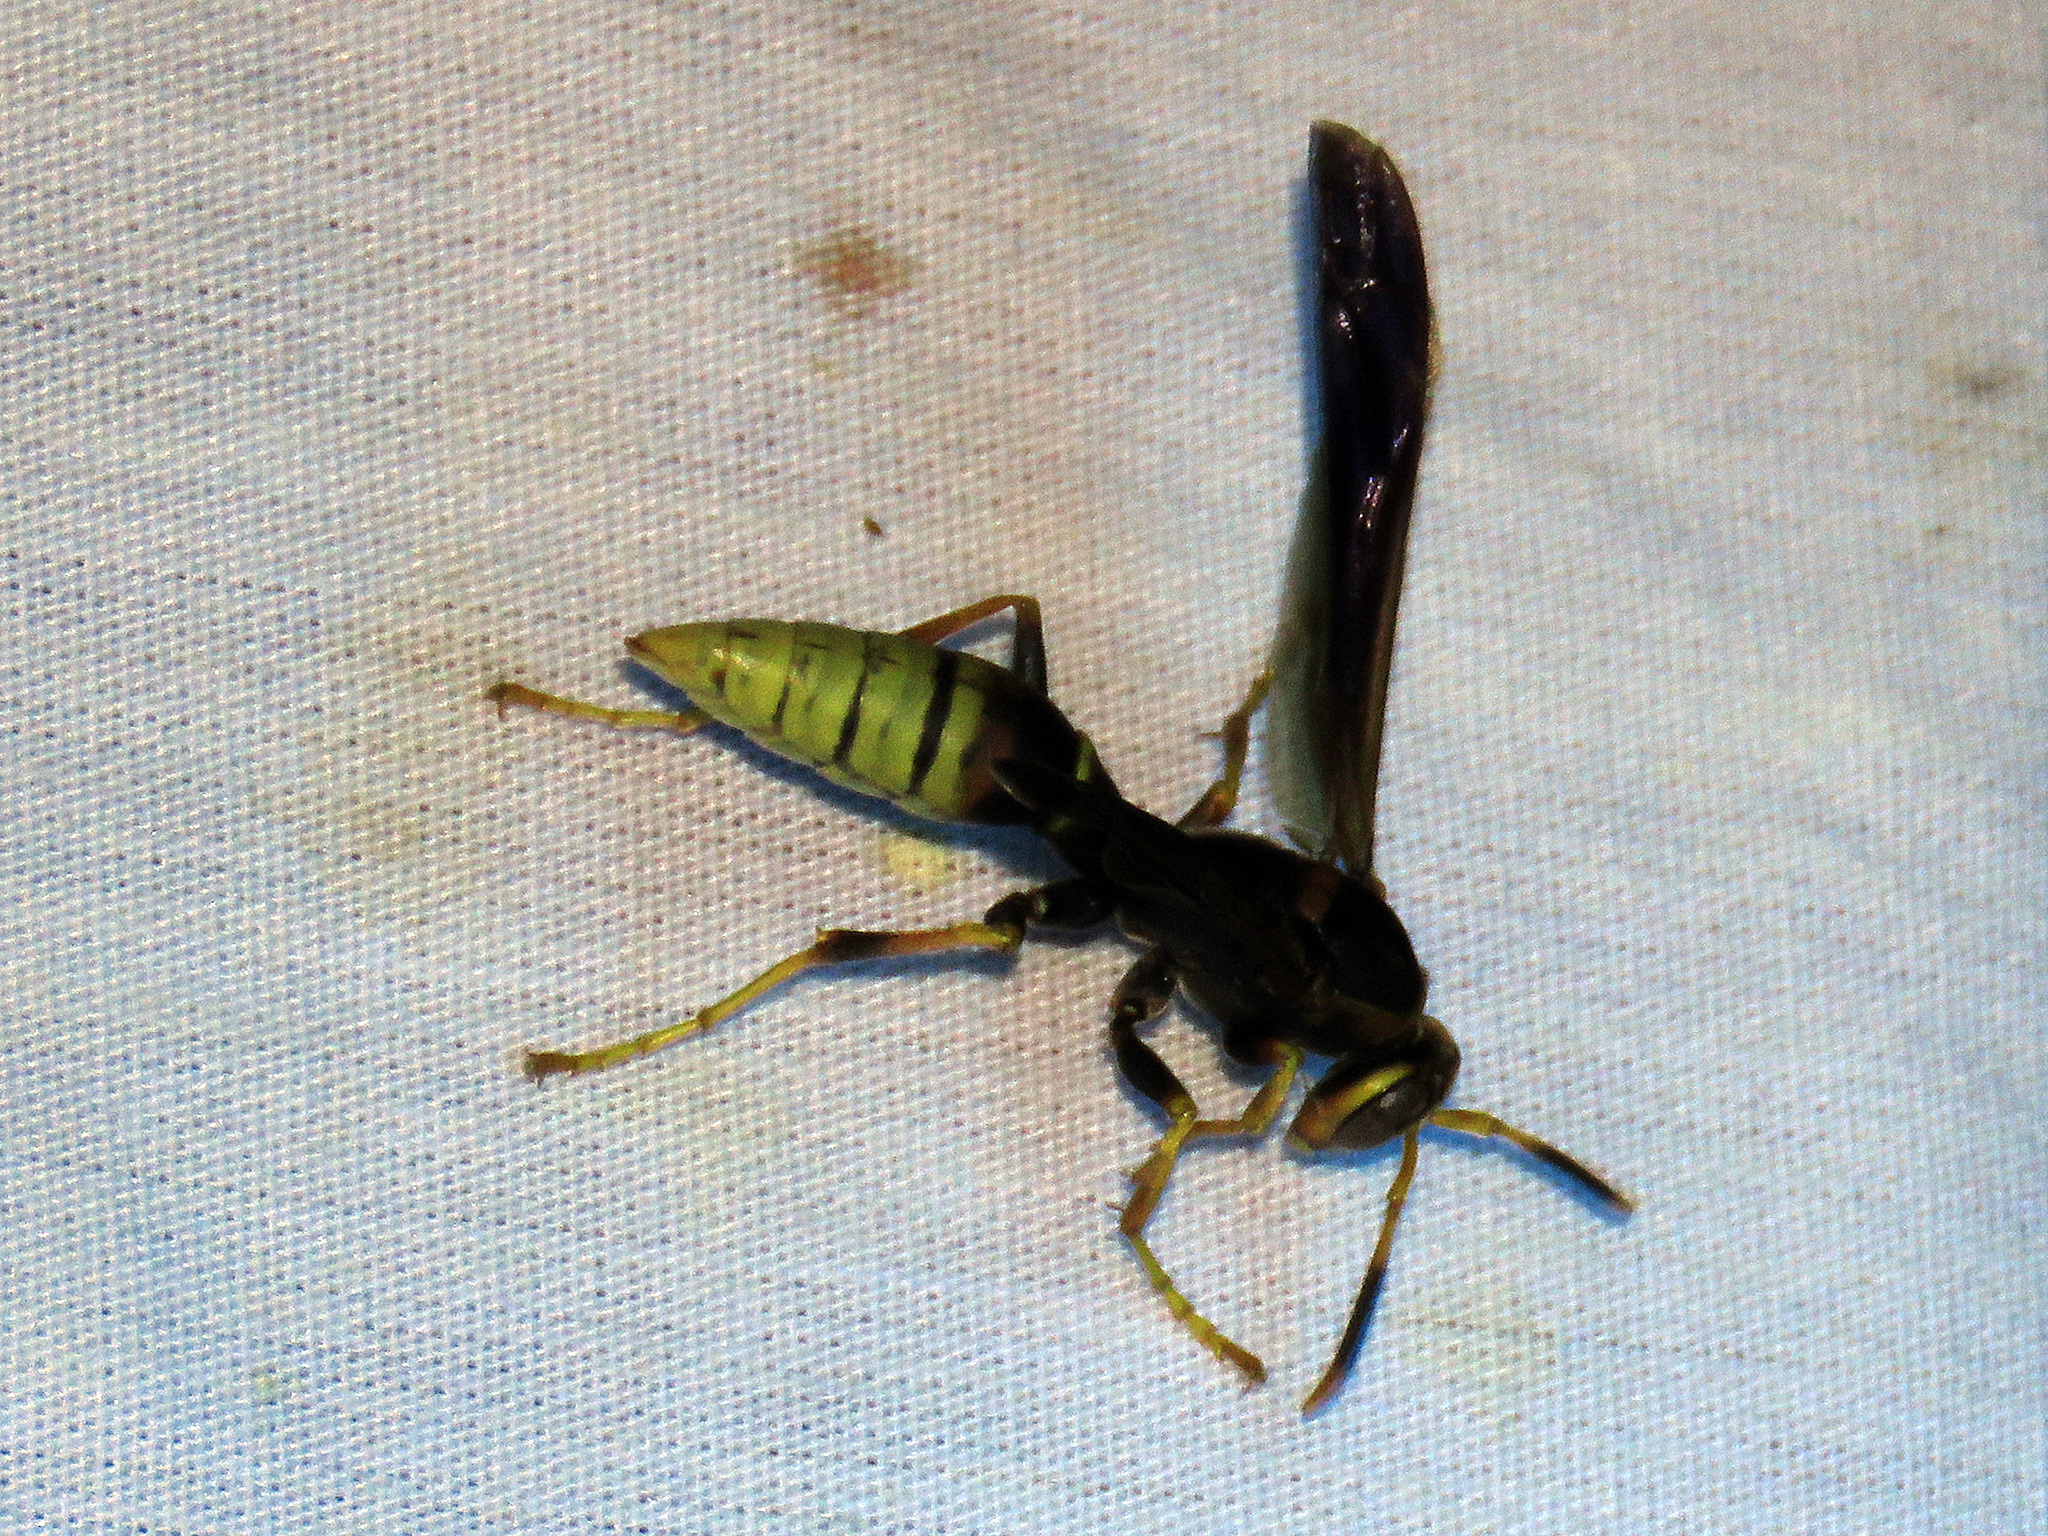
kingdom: Animalia
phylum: Arthropoda
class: Insecta
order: Hymenoptera
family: Eumenidae
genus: Polistes
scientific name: Polistes comanchus
